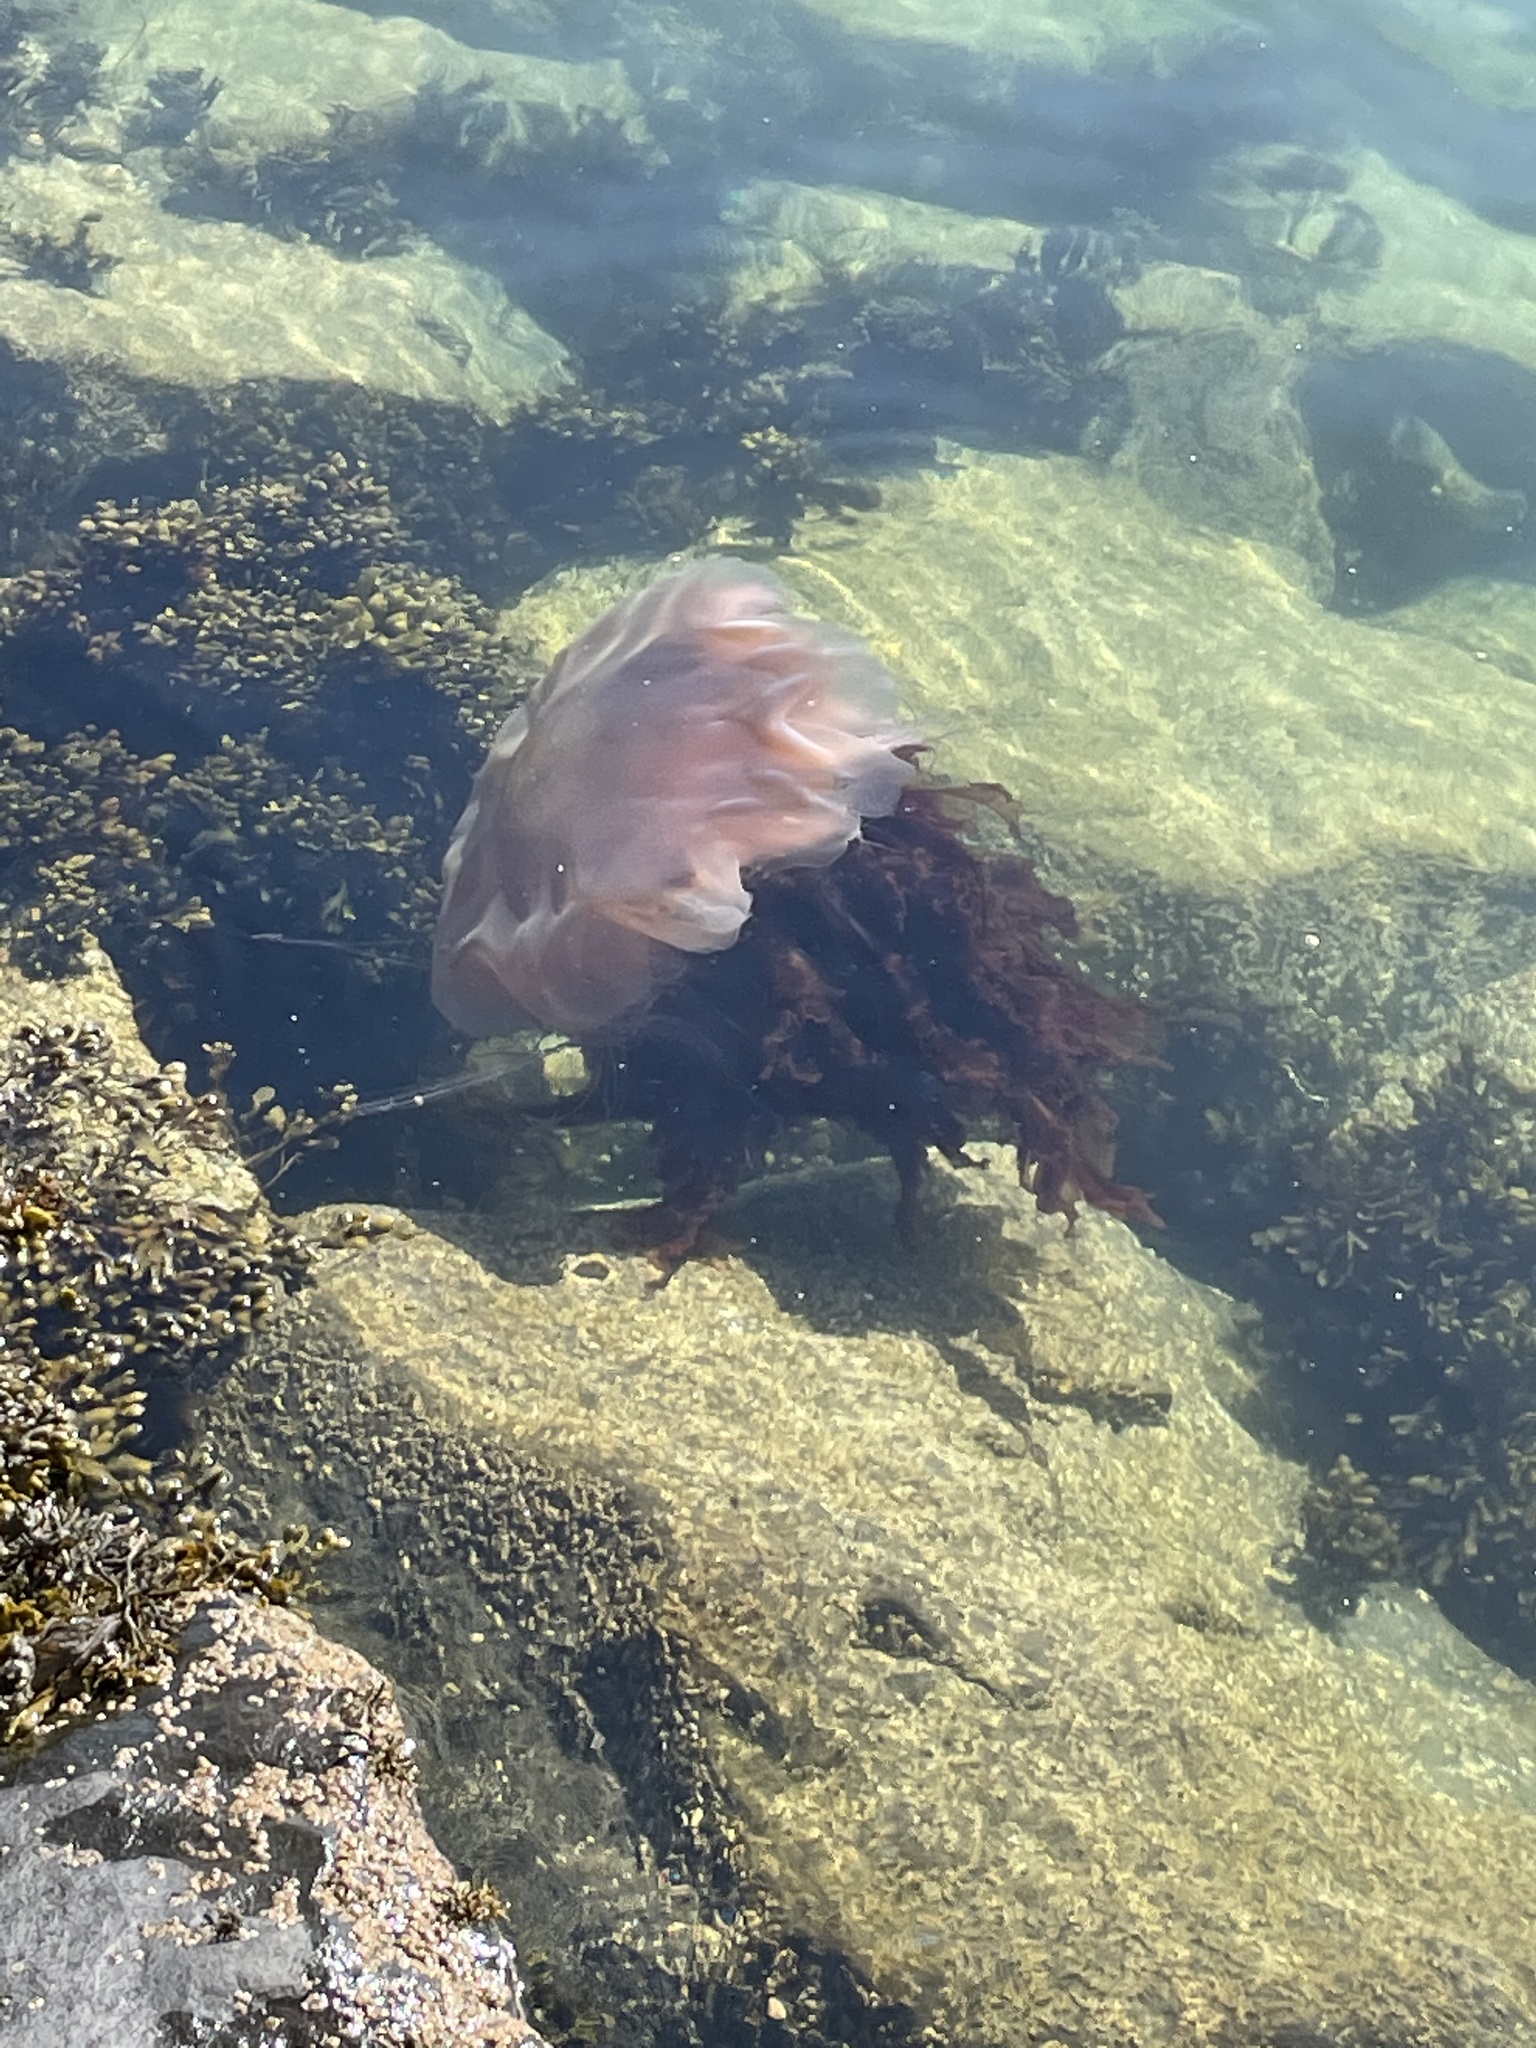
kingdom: Animalia
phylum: Cnidaria
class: Scyphozoa
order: Semaeostomeae
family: Cyaneidae
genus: Cyanea
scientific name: Cyanea capillata
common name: Lion's mane jellyfish
